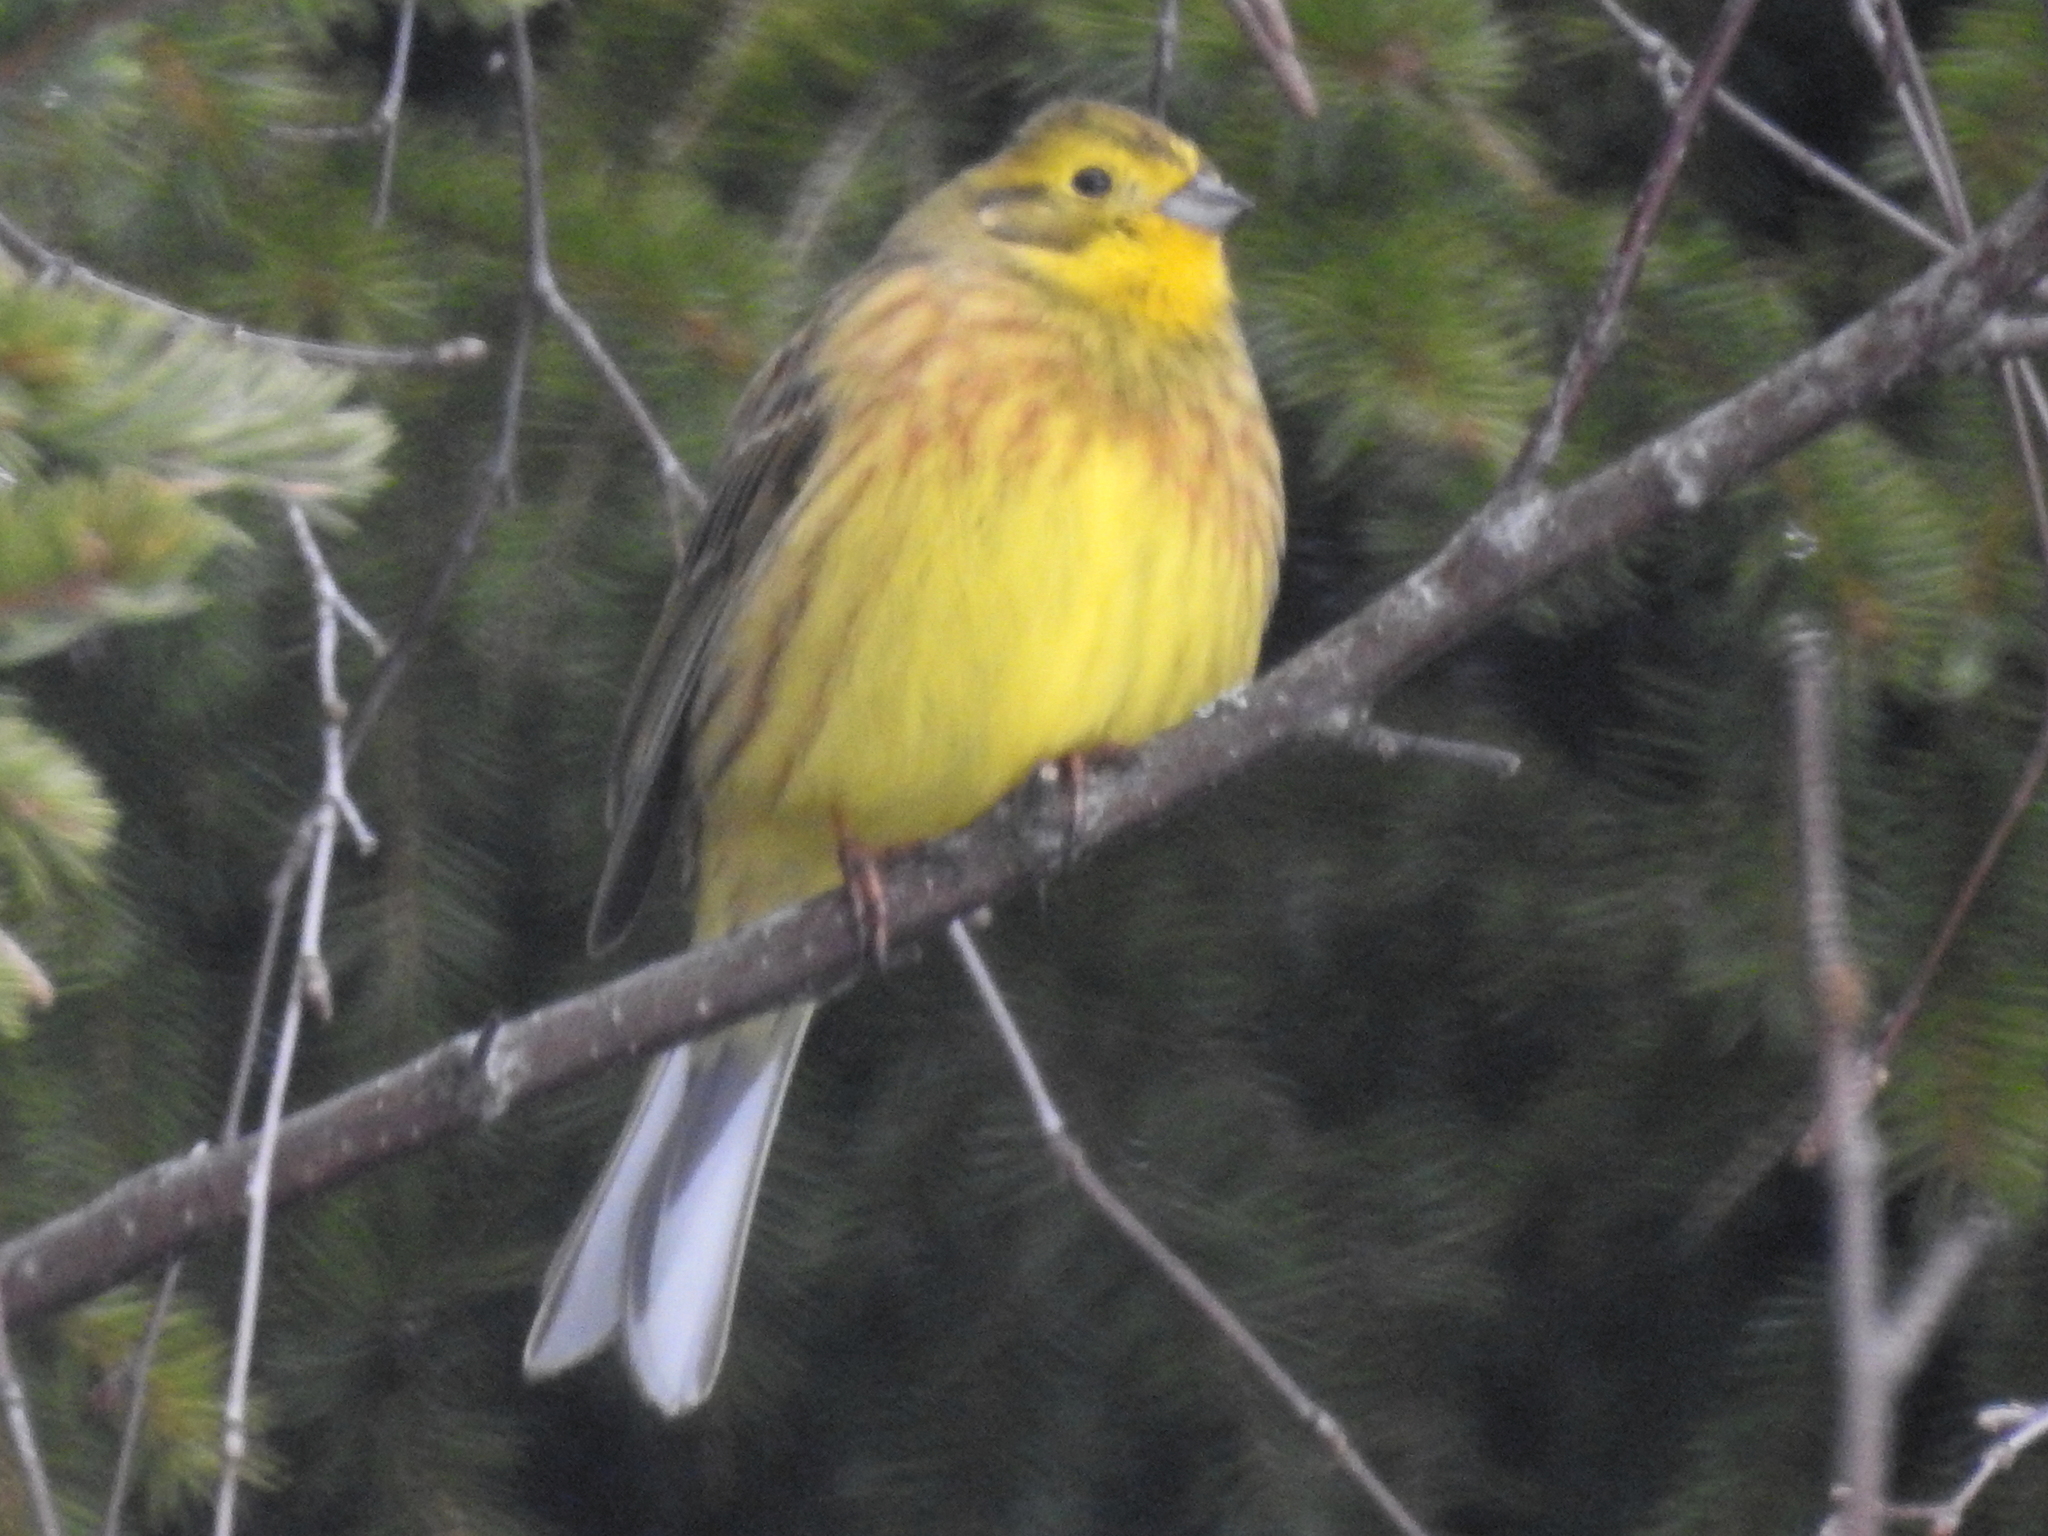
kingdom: Animalia
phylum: Chordata
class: Aves
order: Passeriformes
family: Emberizidae
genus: Emberiza
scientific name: Emberiza citrinella
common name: Yellowhammer
